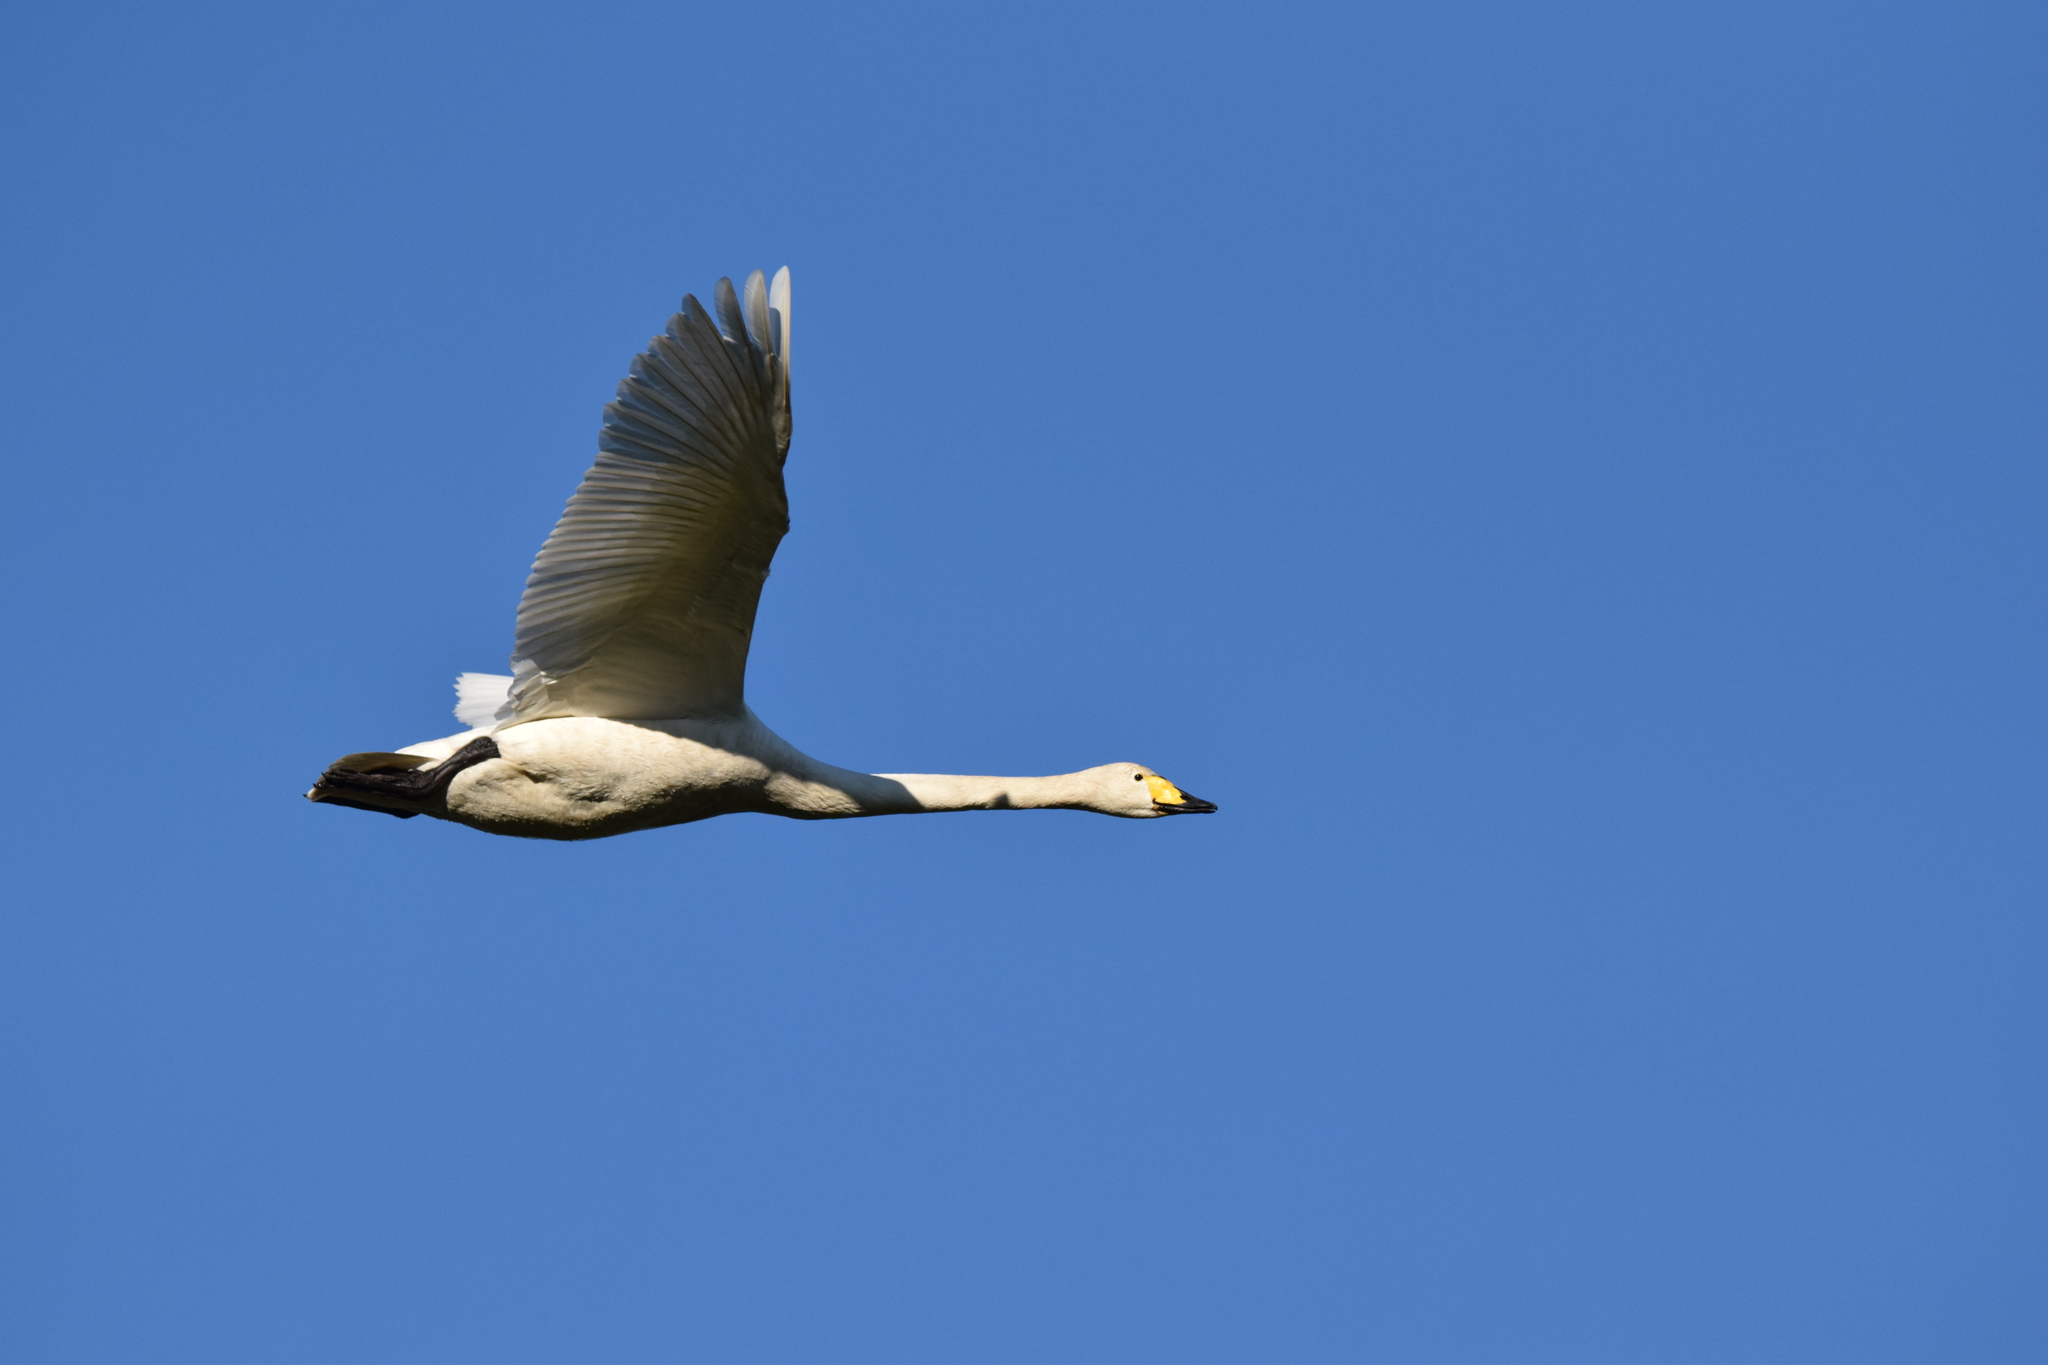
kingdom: Animalia
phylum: Chordata
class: Aves
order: Anseriformes
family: Anatidae
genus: Cygnus
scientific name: Cygnus cygnus
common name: Whooper swan
